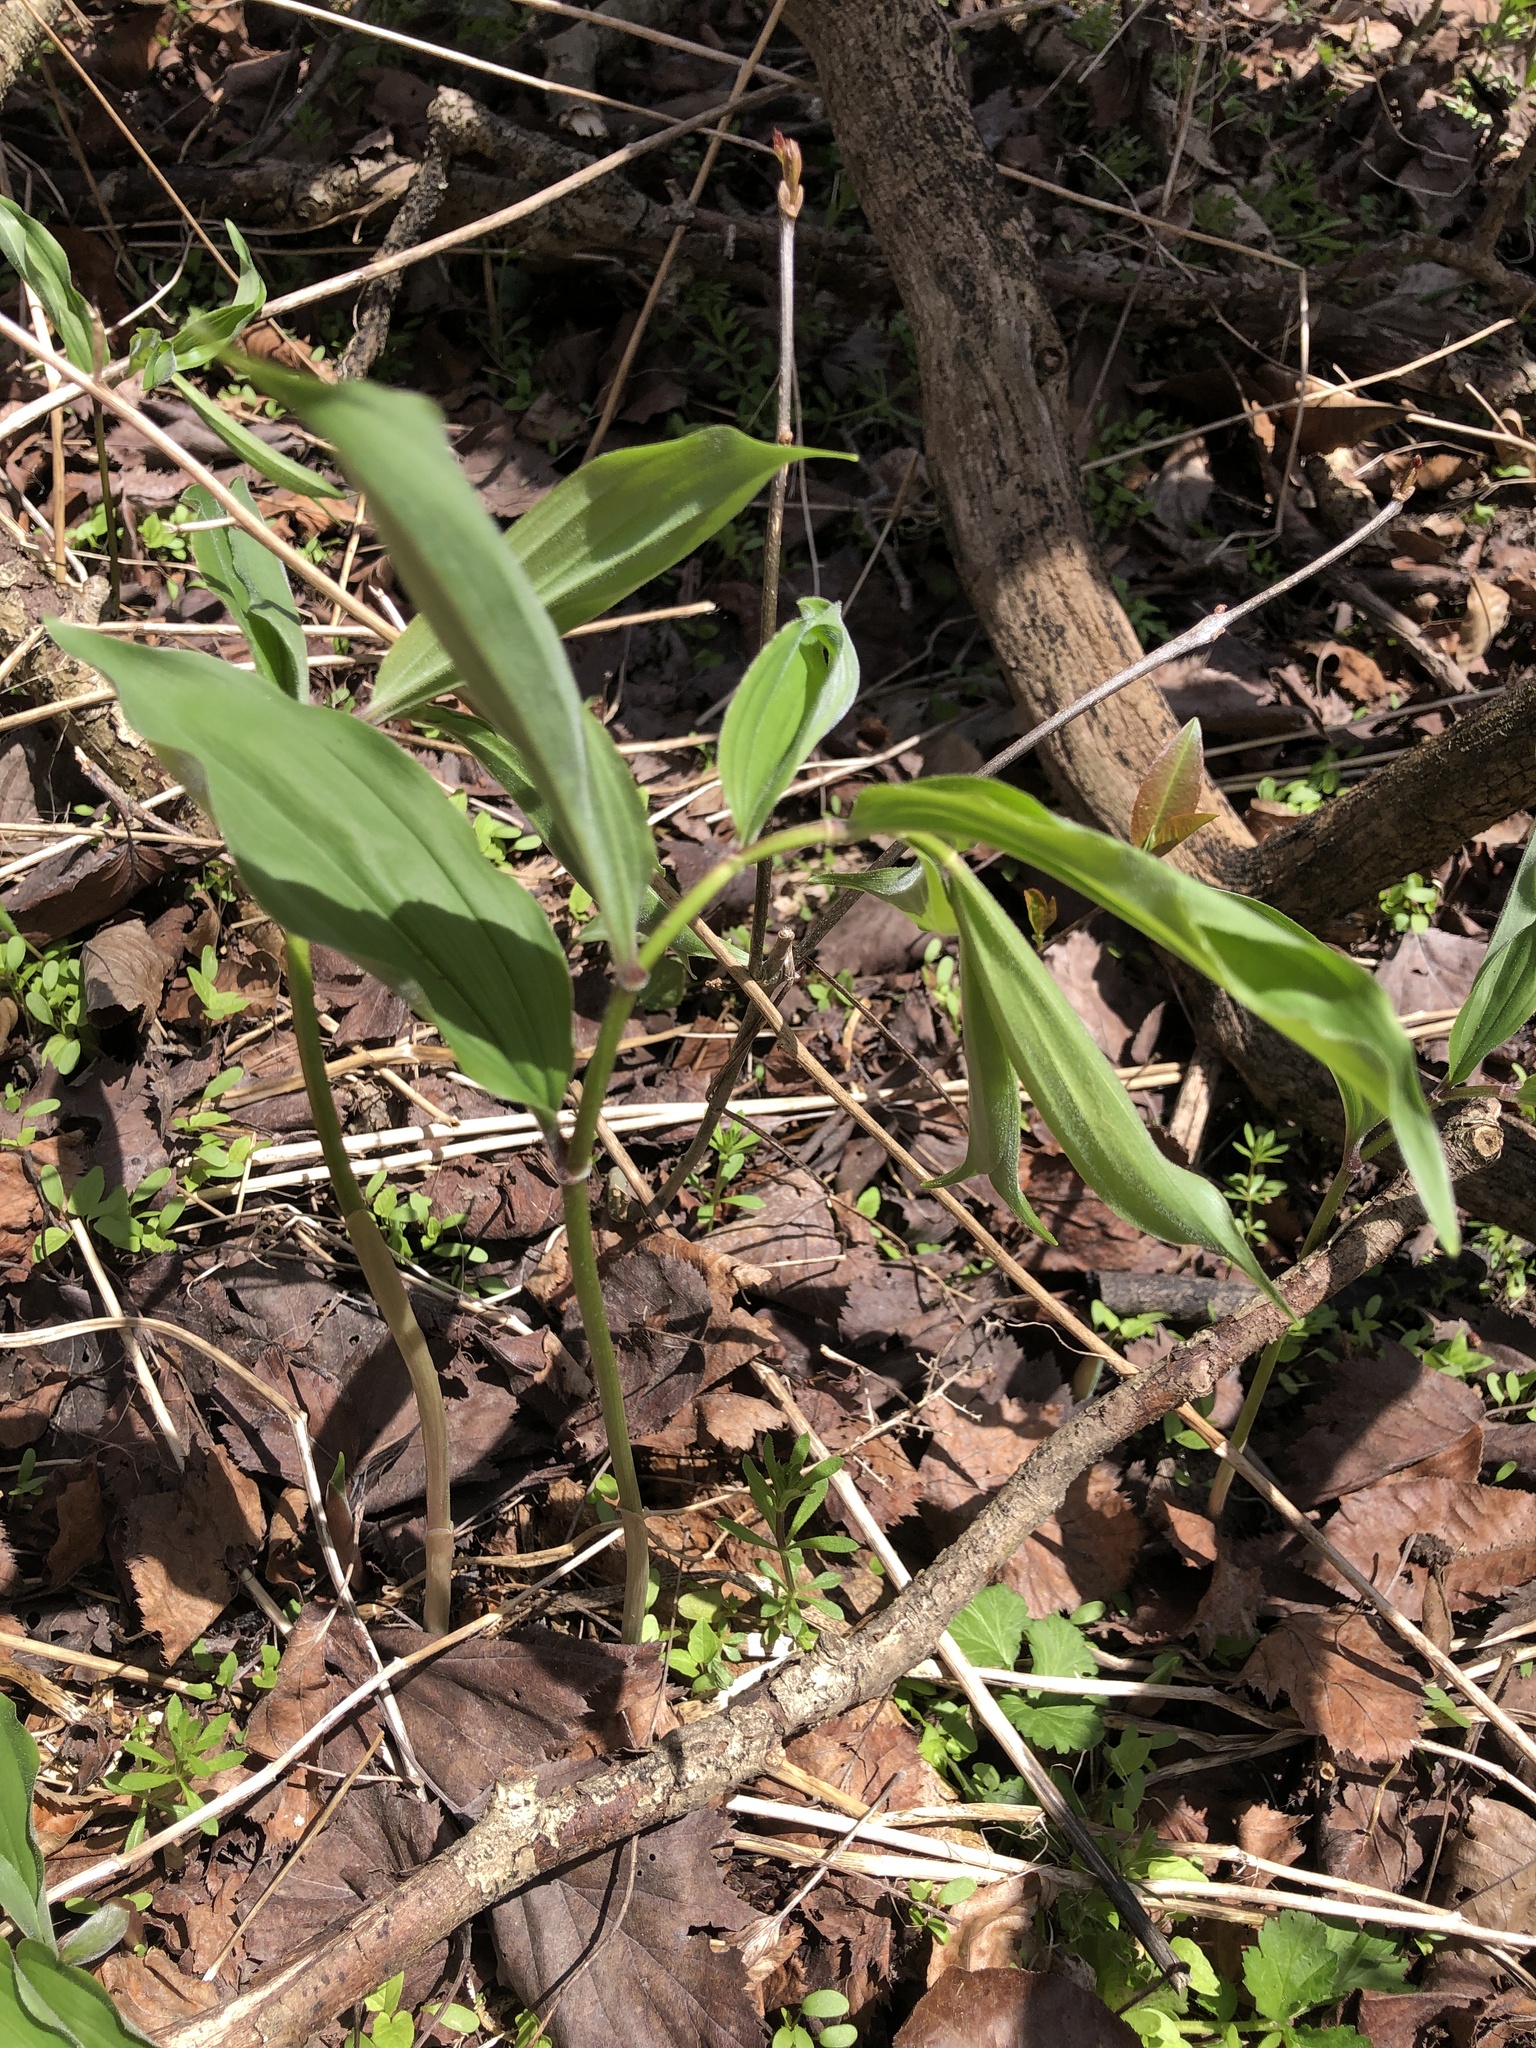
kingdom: Plantae
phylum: Tracheophyta
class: Liliopsida
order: Asparagales
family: Asparagaceae
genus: Maianthemum
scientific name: Maianthemum racemosum
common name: False spikenard
